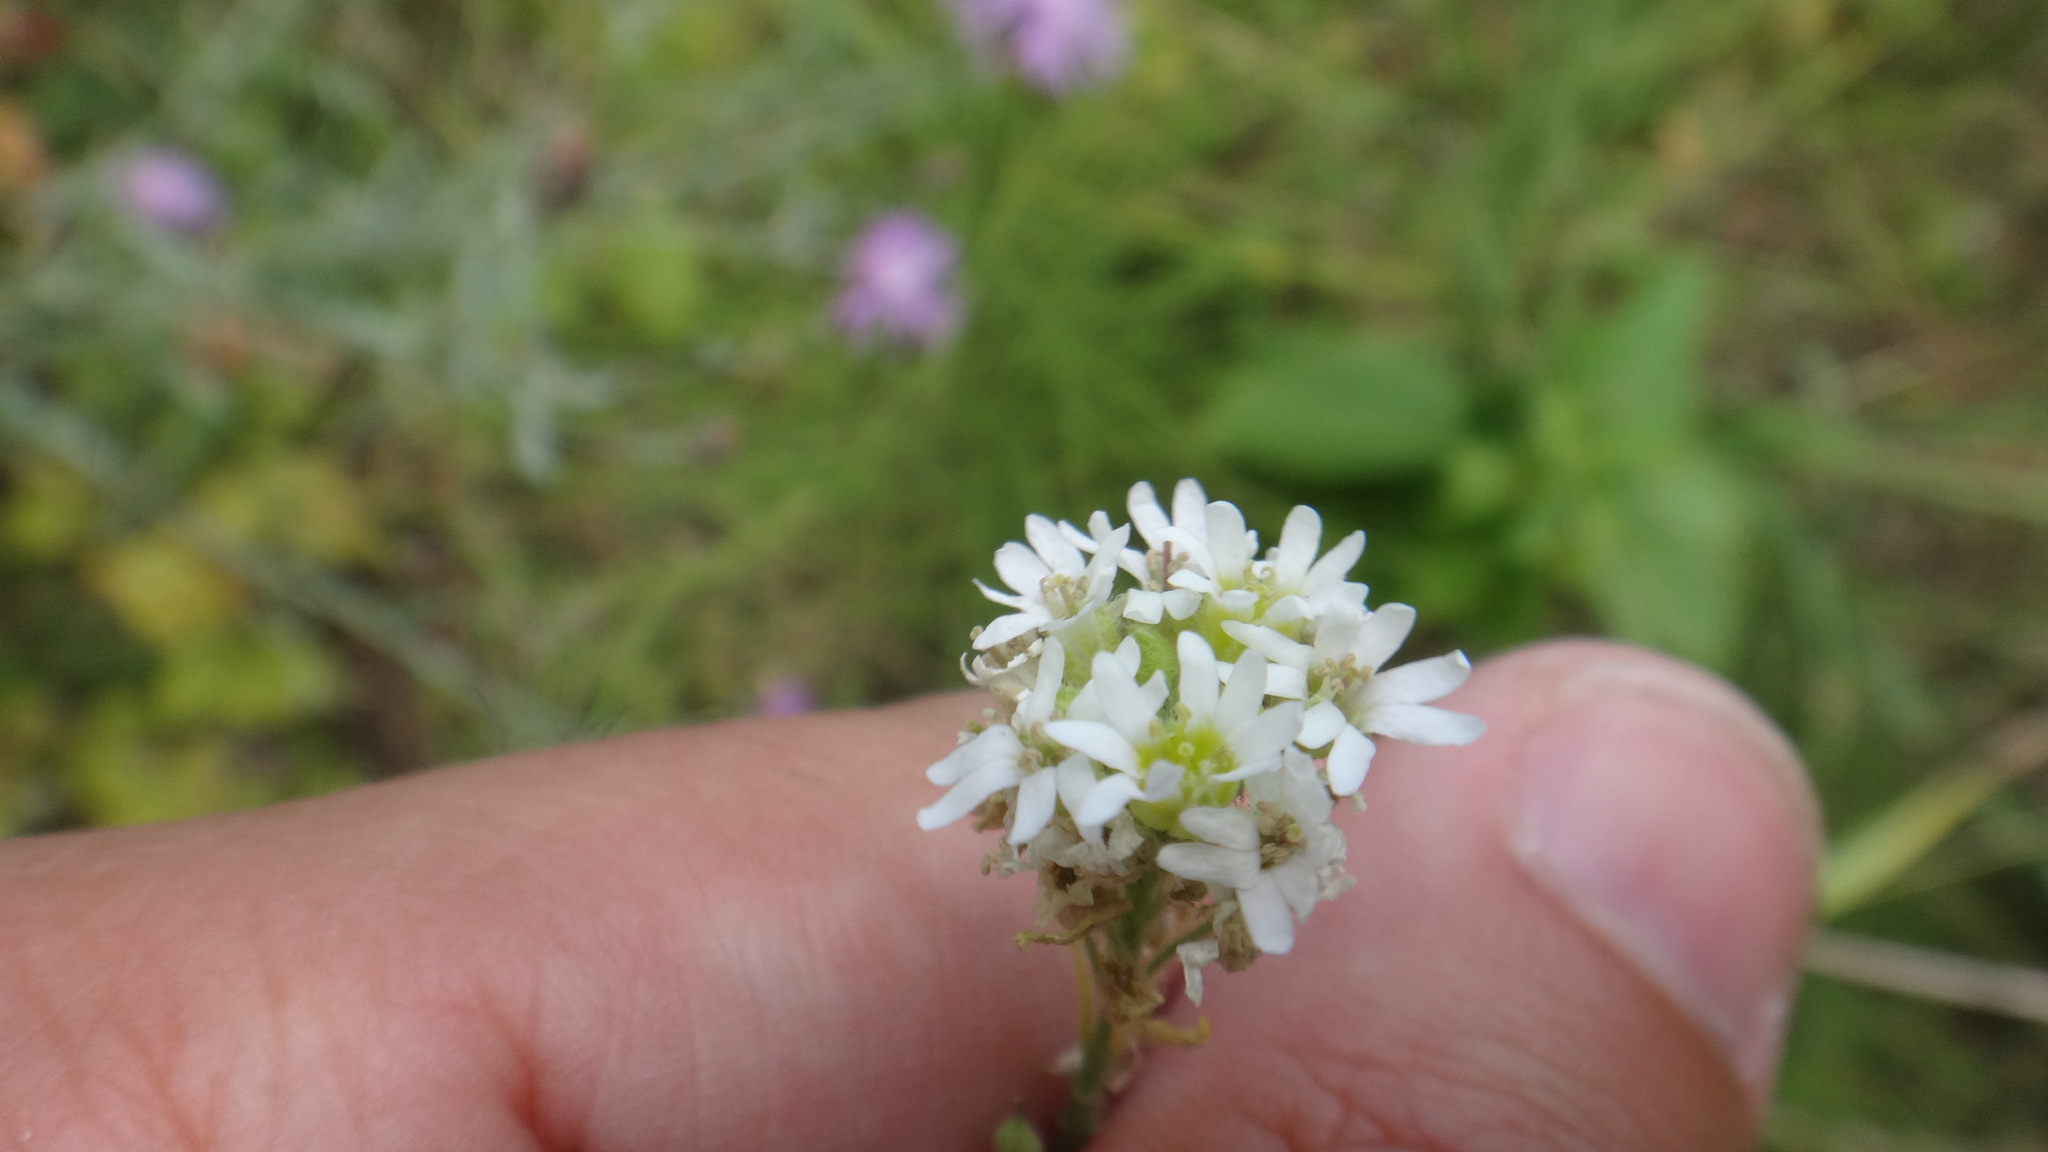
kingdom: Plantae
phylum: Tracheophyta
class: Magnoliopsida
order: Brassicales
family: Brassicaceae
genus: Berteroa
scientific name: Berteroa incana
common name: Hoary alison
